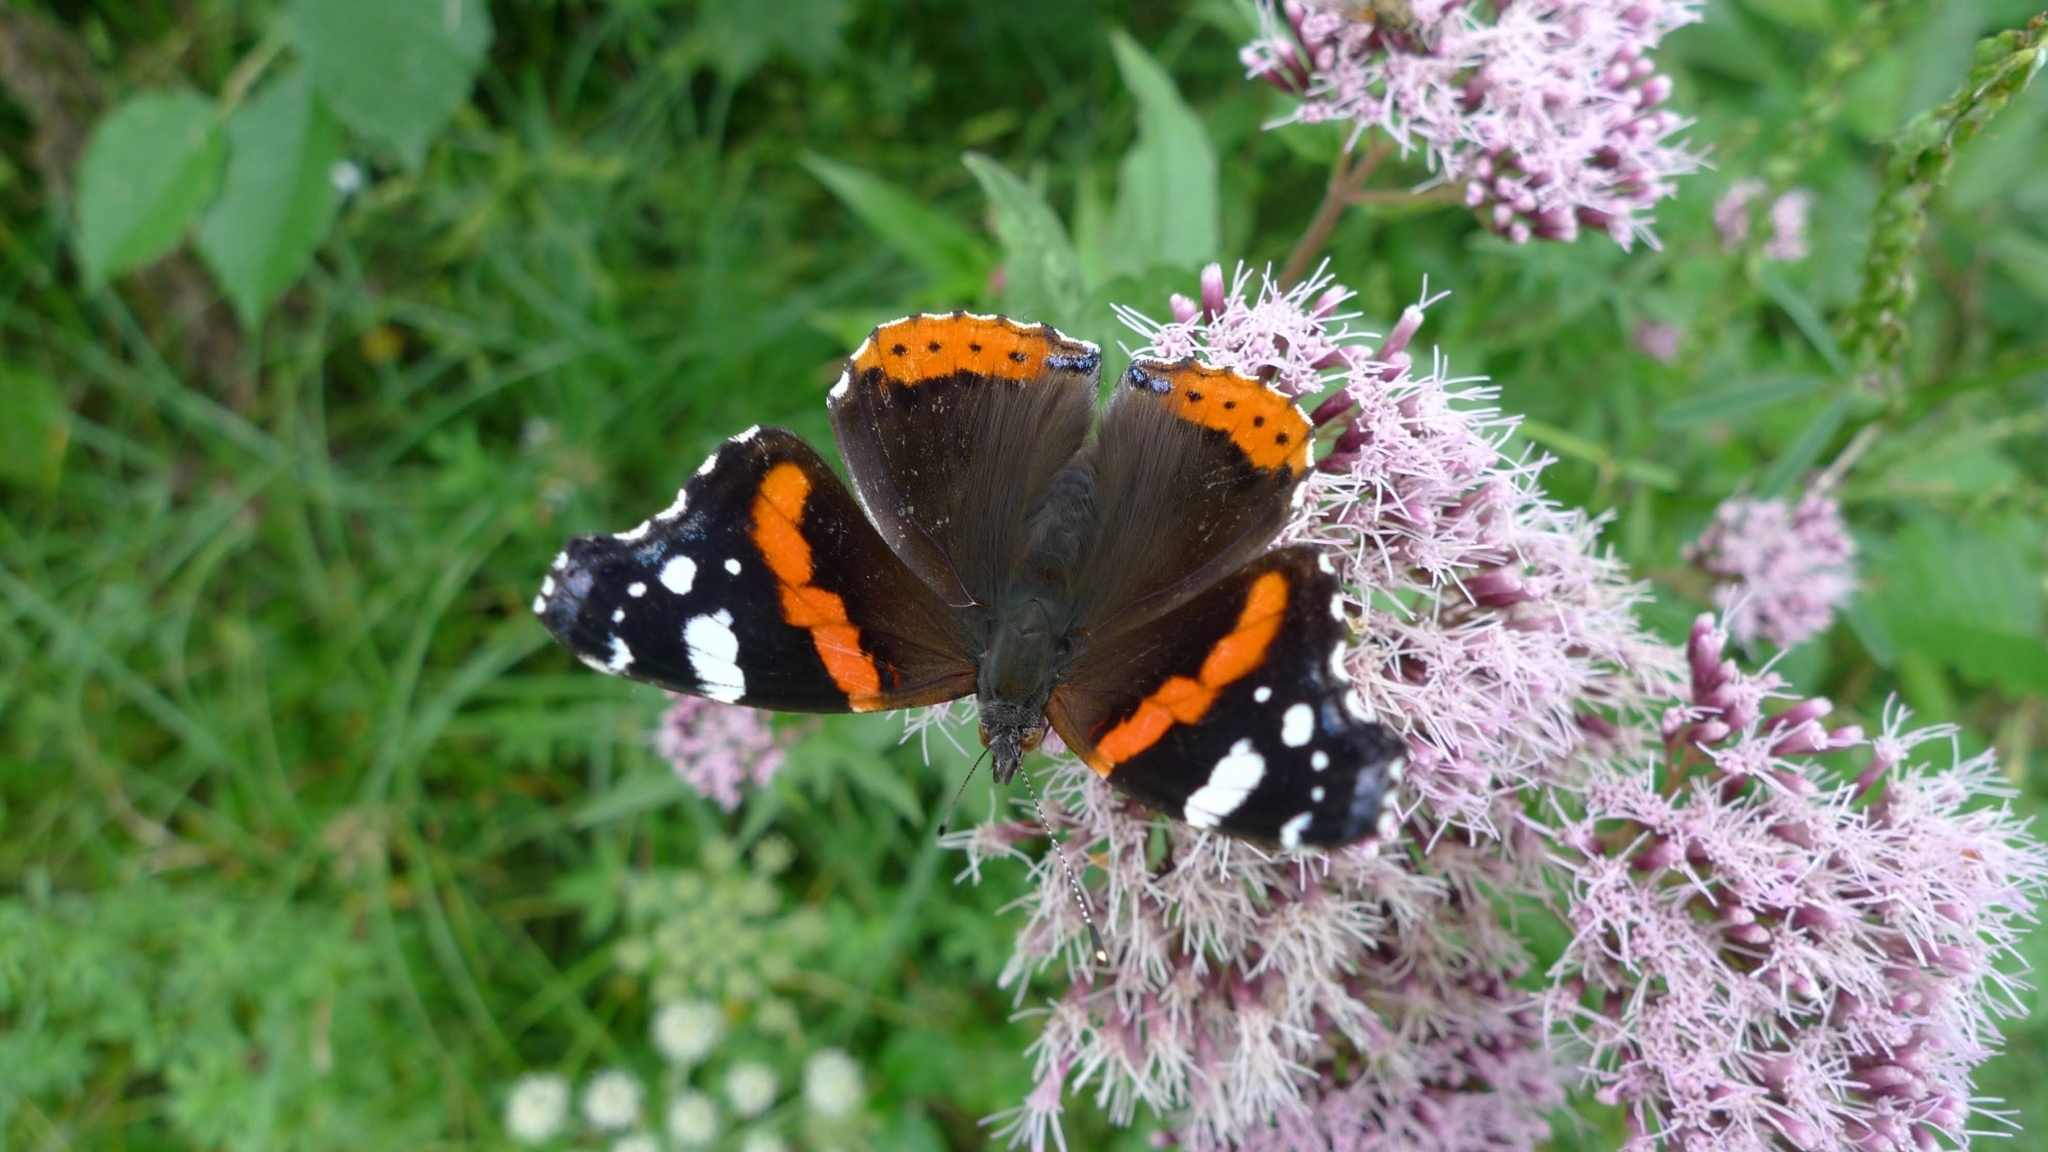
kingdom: Animalia
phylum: Arthropoda
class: Insecta
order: Lepidoptera
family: Nymphalidae
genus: Vanessa
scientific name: Vanessa atalanta
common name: Red admiral
